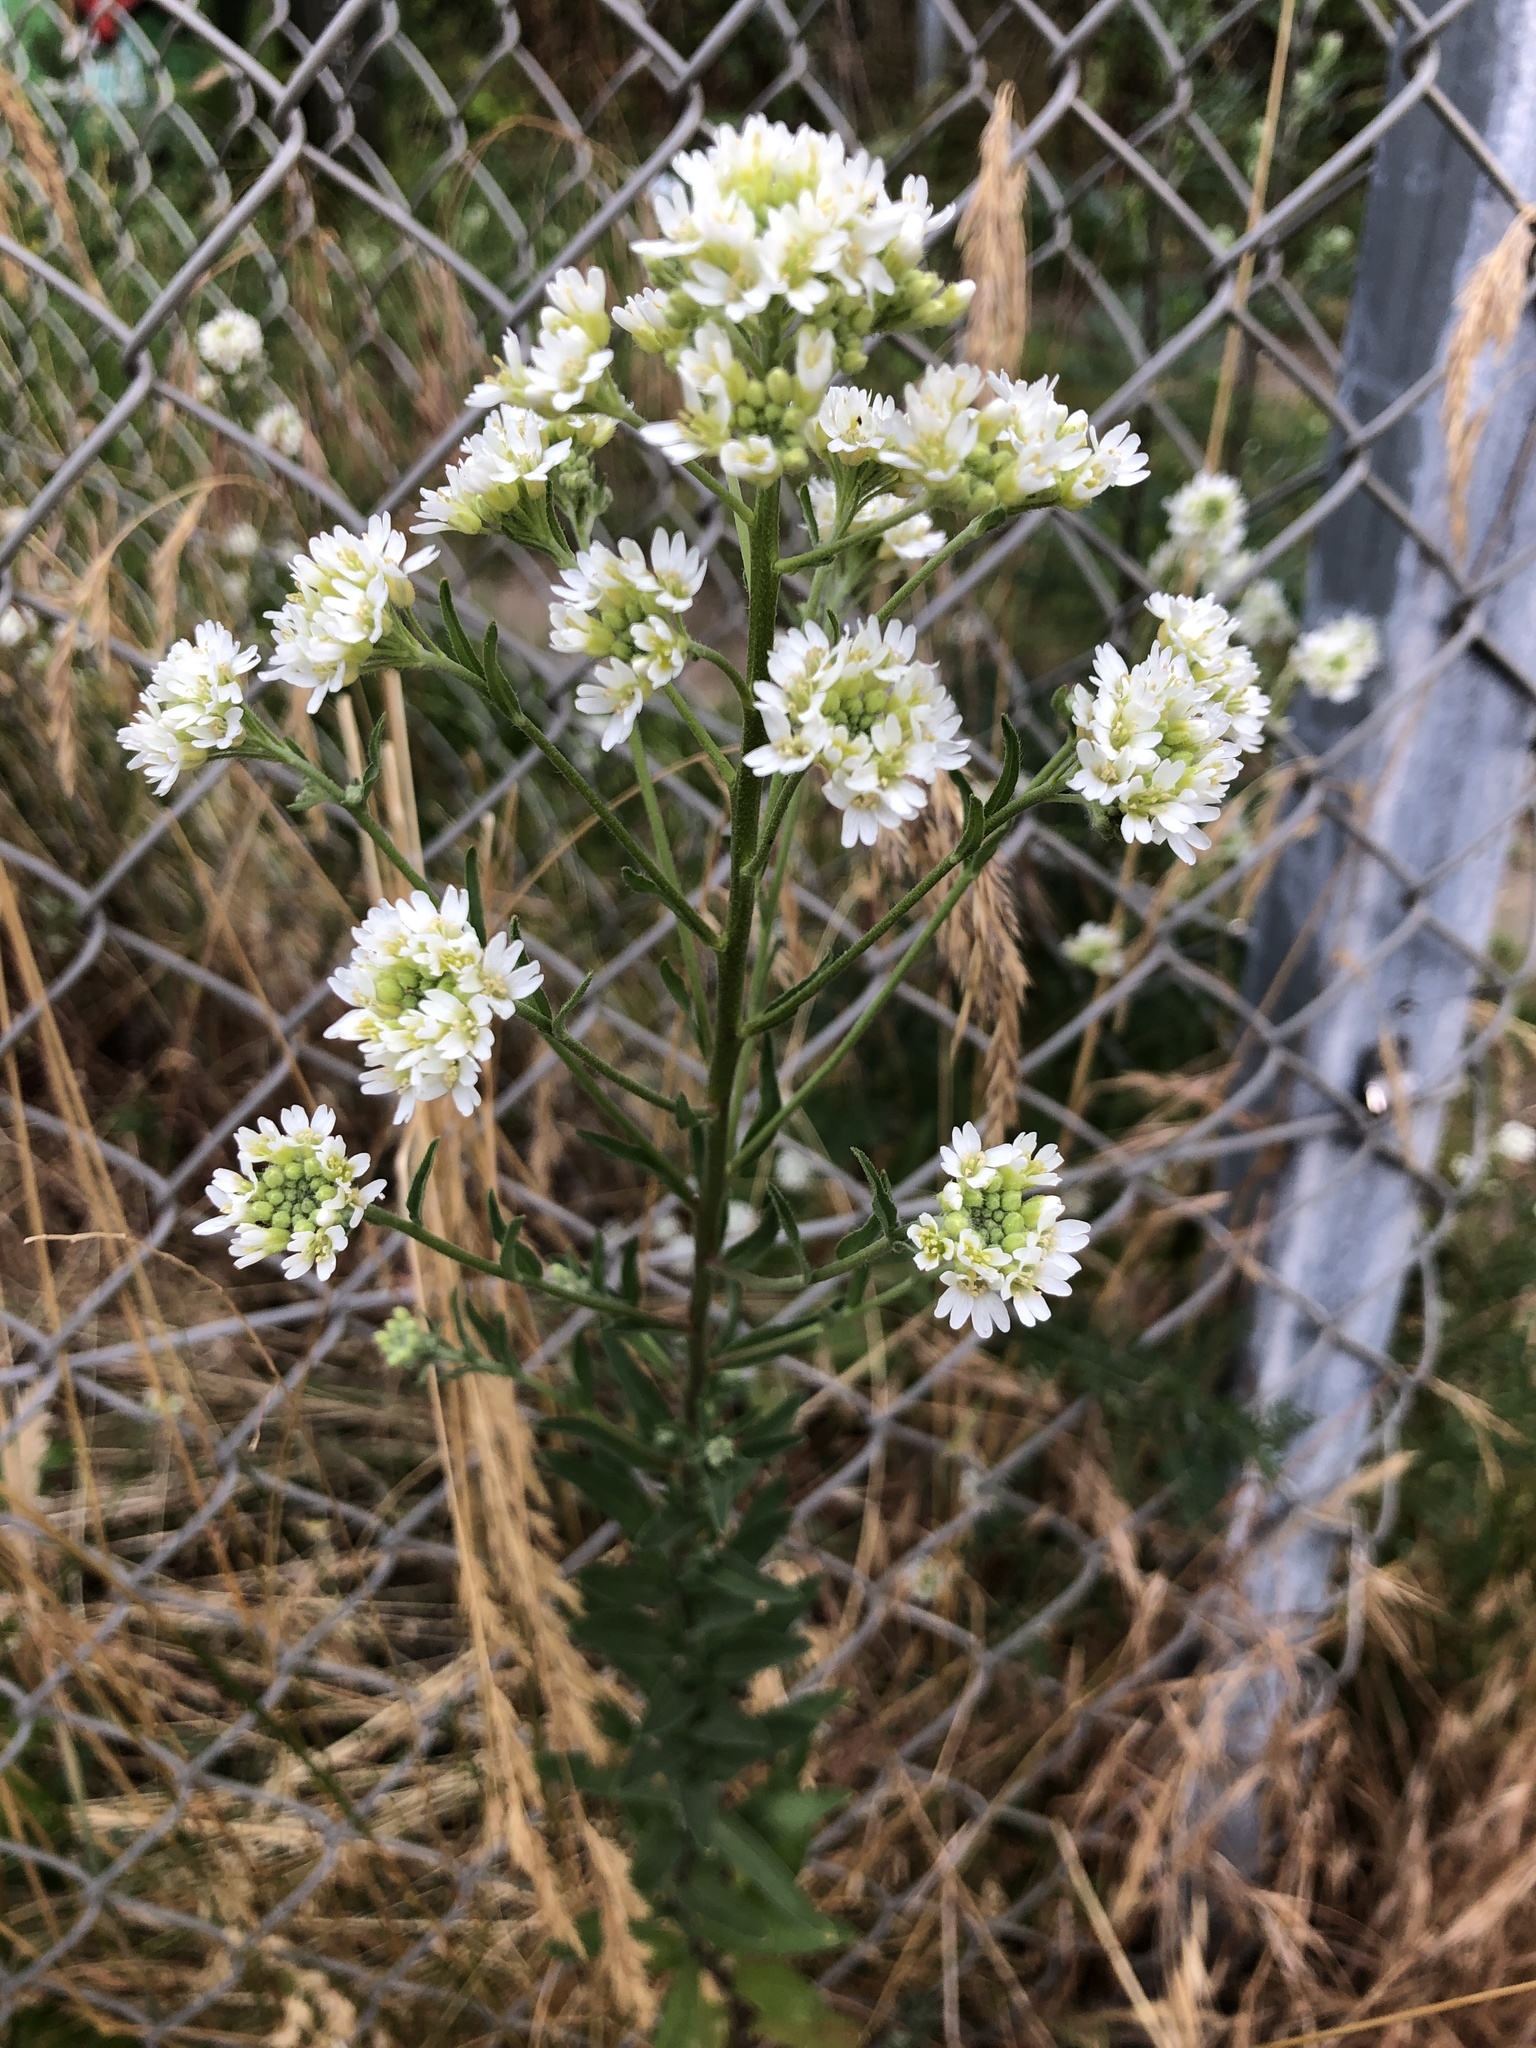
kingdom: Plantae
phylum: Tracheophyta
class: Magnoliopsida
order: Brassicales
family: Brassicaceae
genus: Berteroa
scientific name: Berteroa incana
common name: Hoary alison
